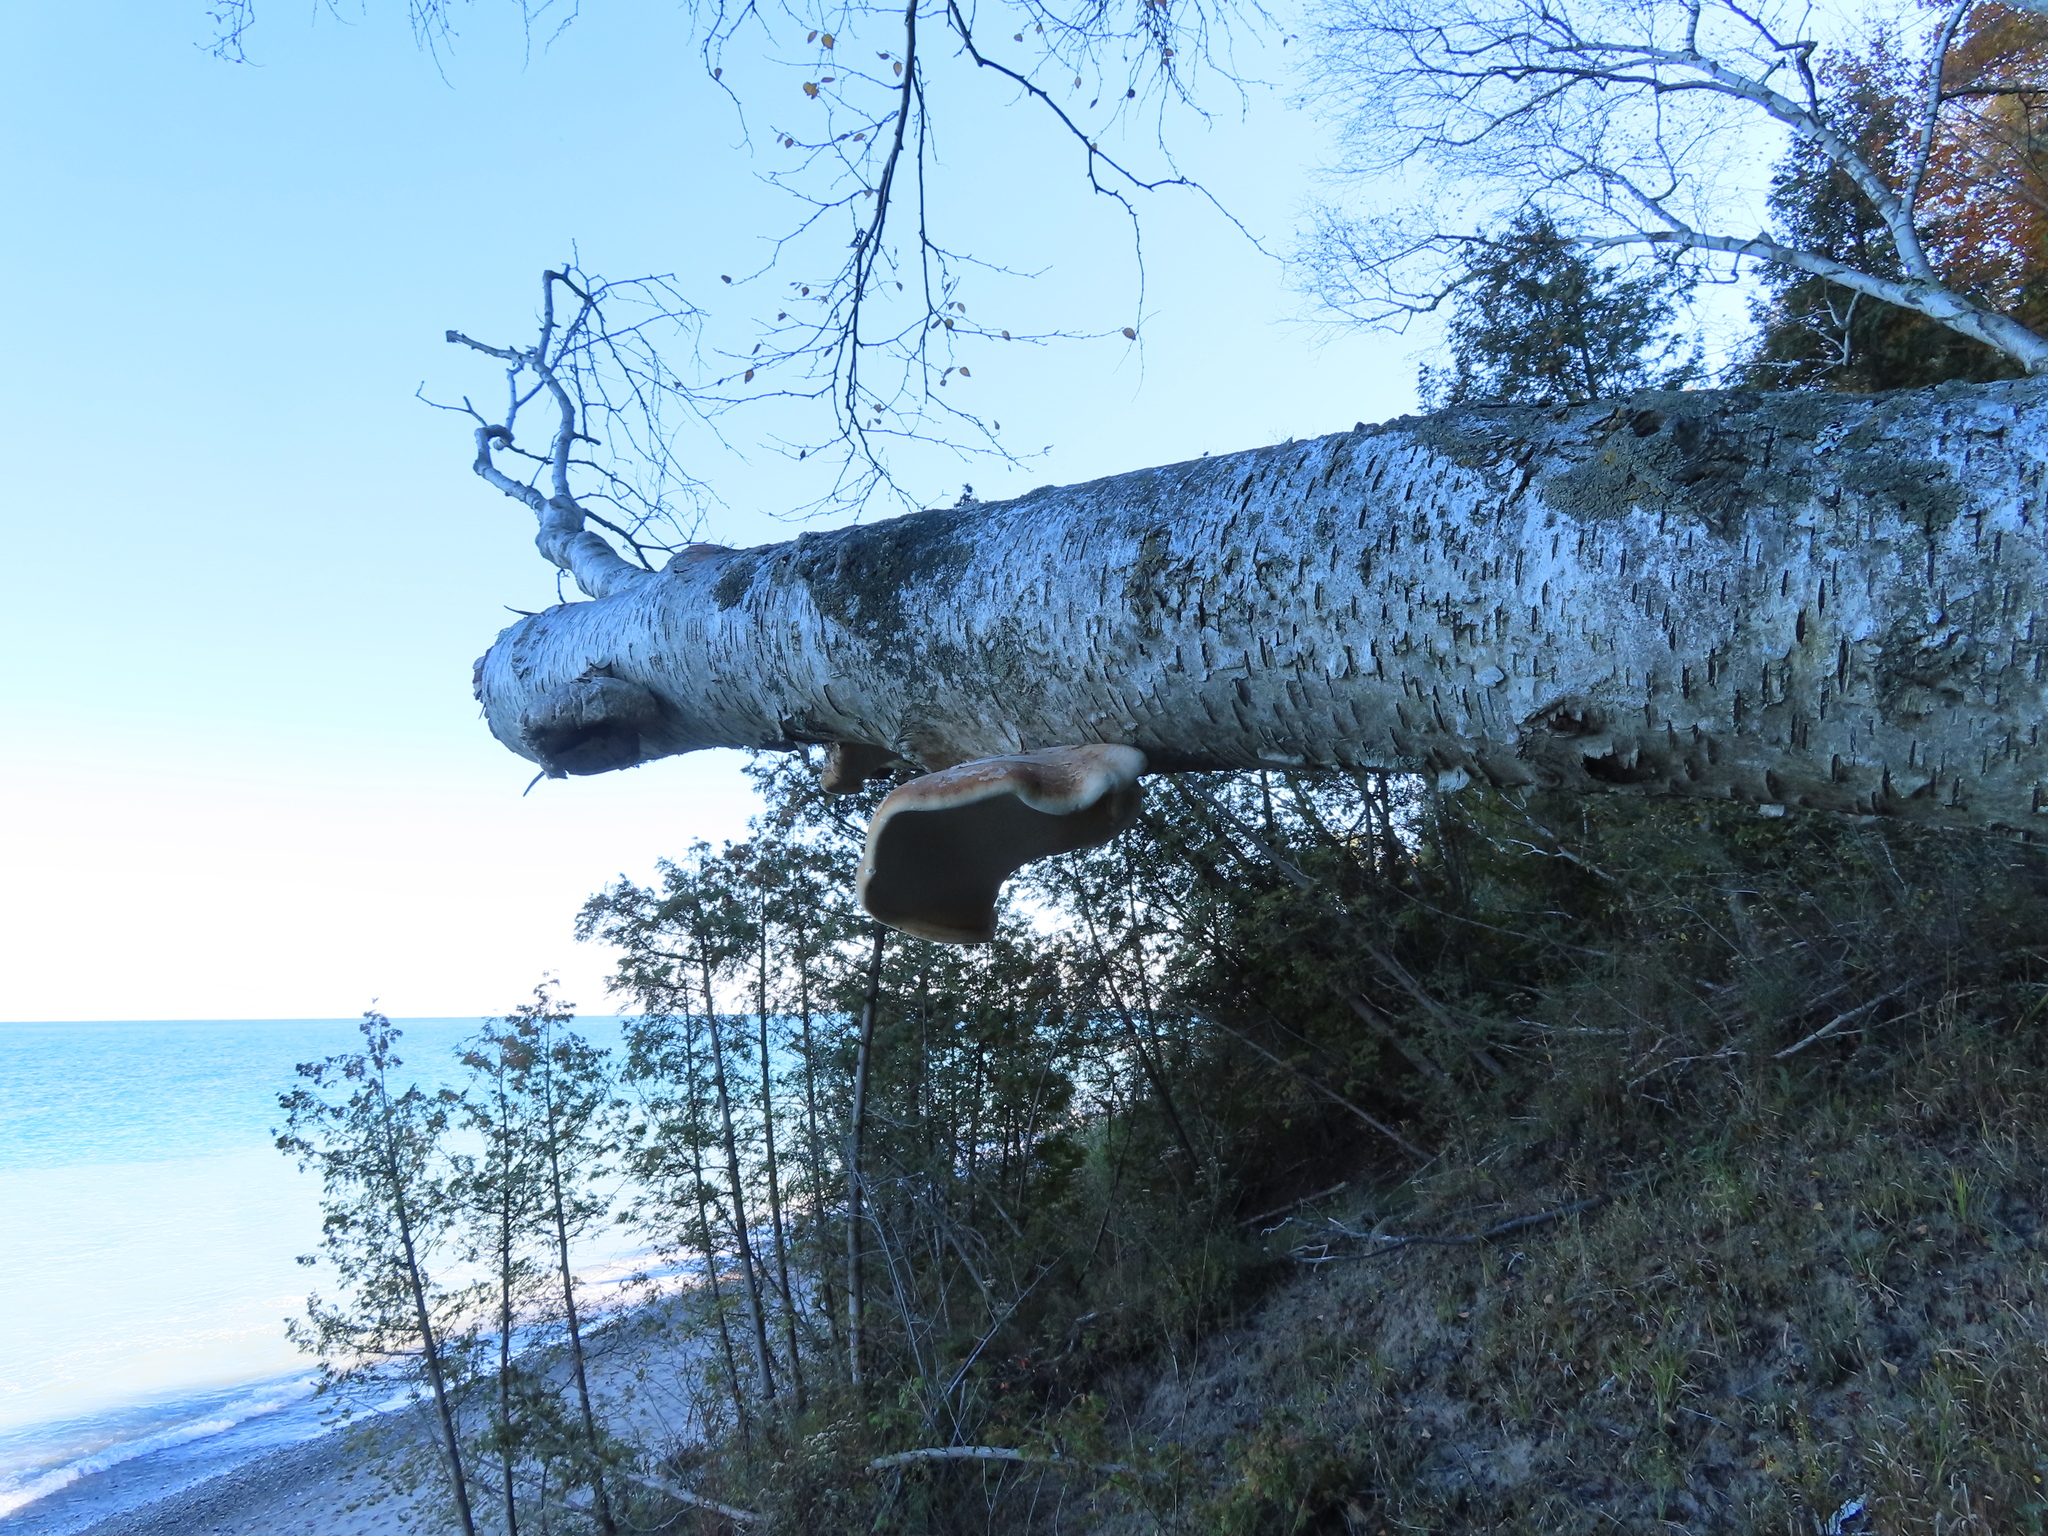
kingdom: Fungi
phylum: Basidiomycota
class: Agaricomycetes
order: Polyporales
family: Fomitopsidaceae
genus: Fomitopsis
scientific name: Fomitopsis betulina
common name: Birch polypore
